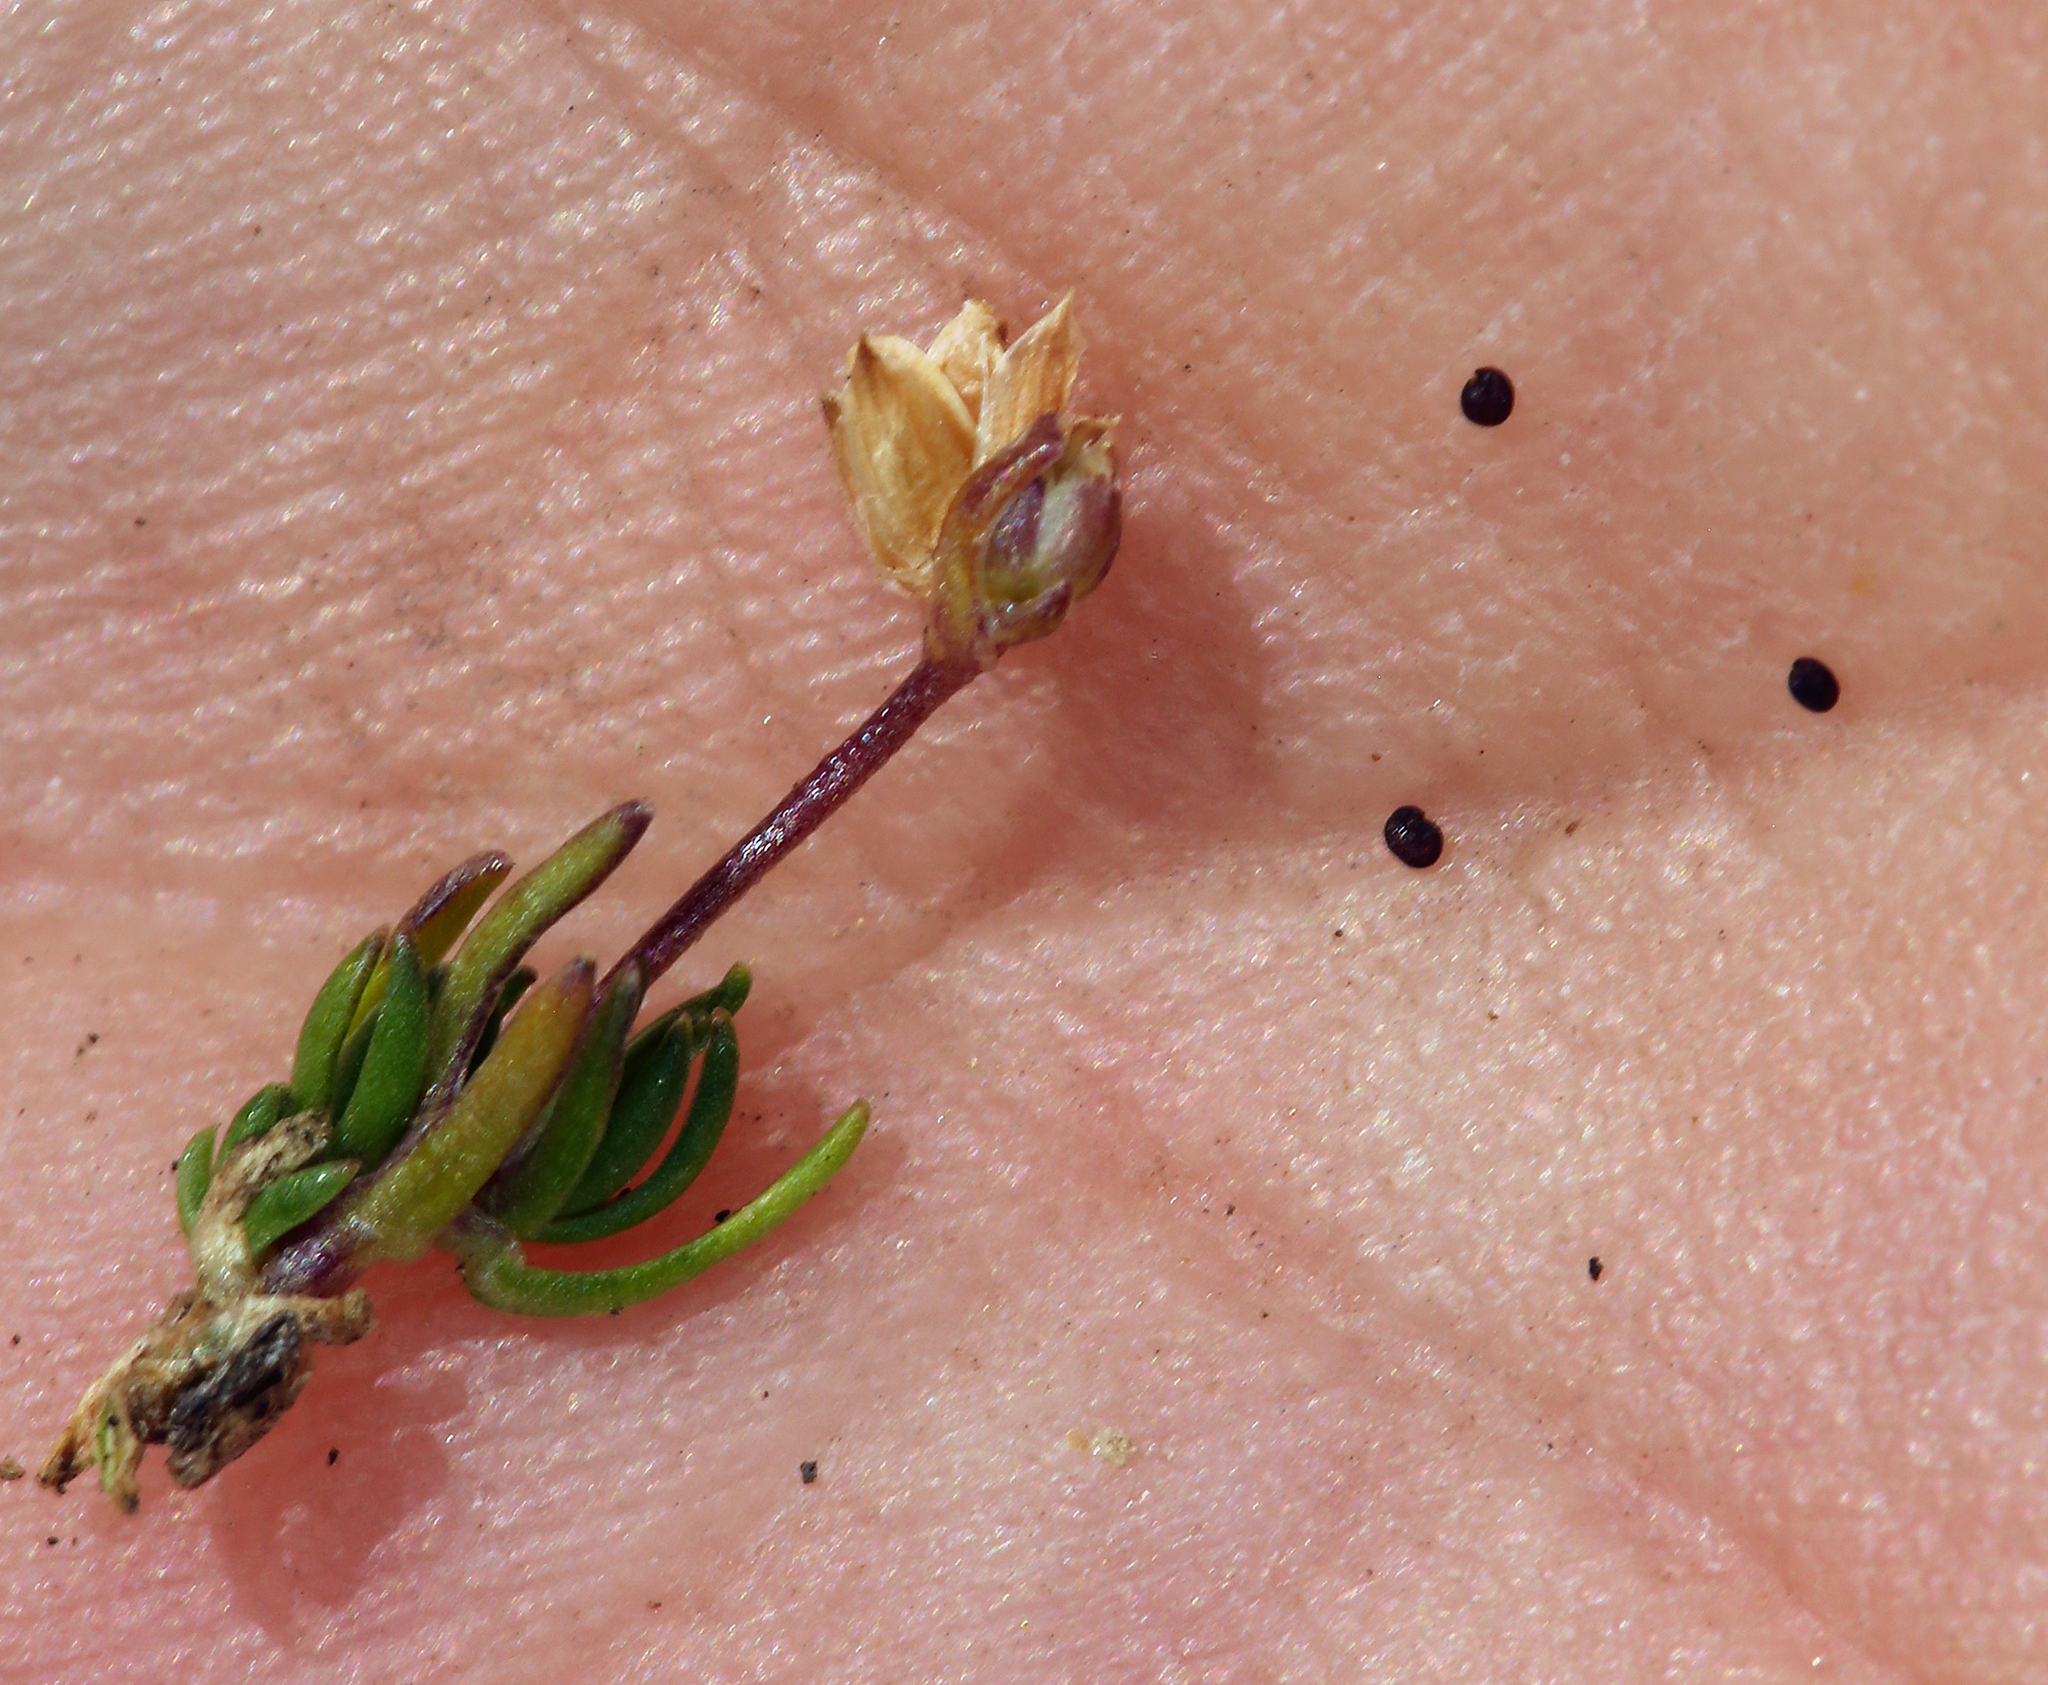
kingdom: Plantae
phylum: Tracheophyta
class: Magnoliopsida
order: Caryophyllales
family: Caryophyllaceae
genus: Sabulina
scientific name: Sabulina stricta
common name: Bog sandwort
